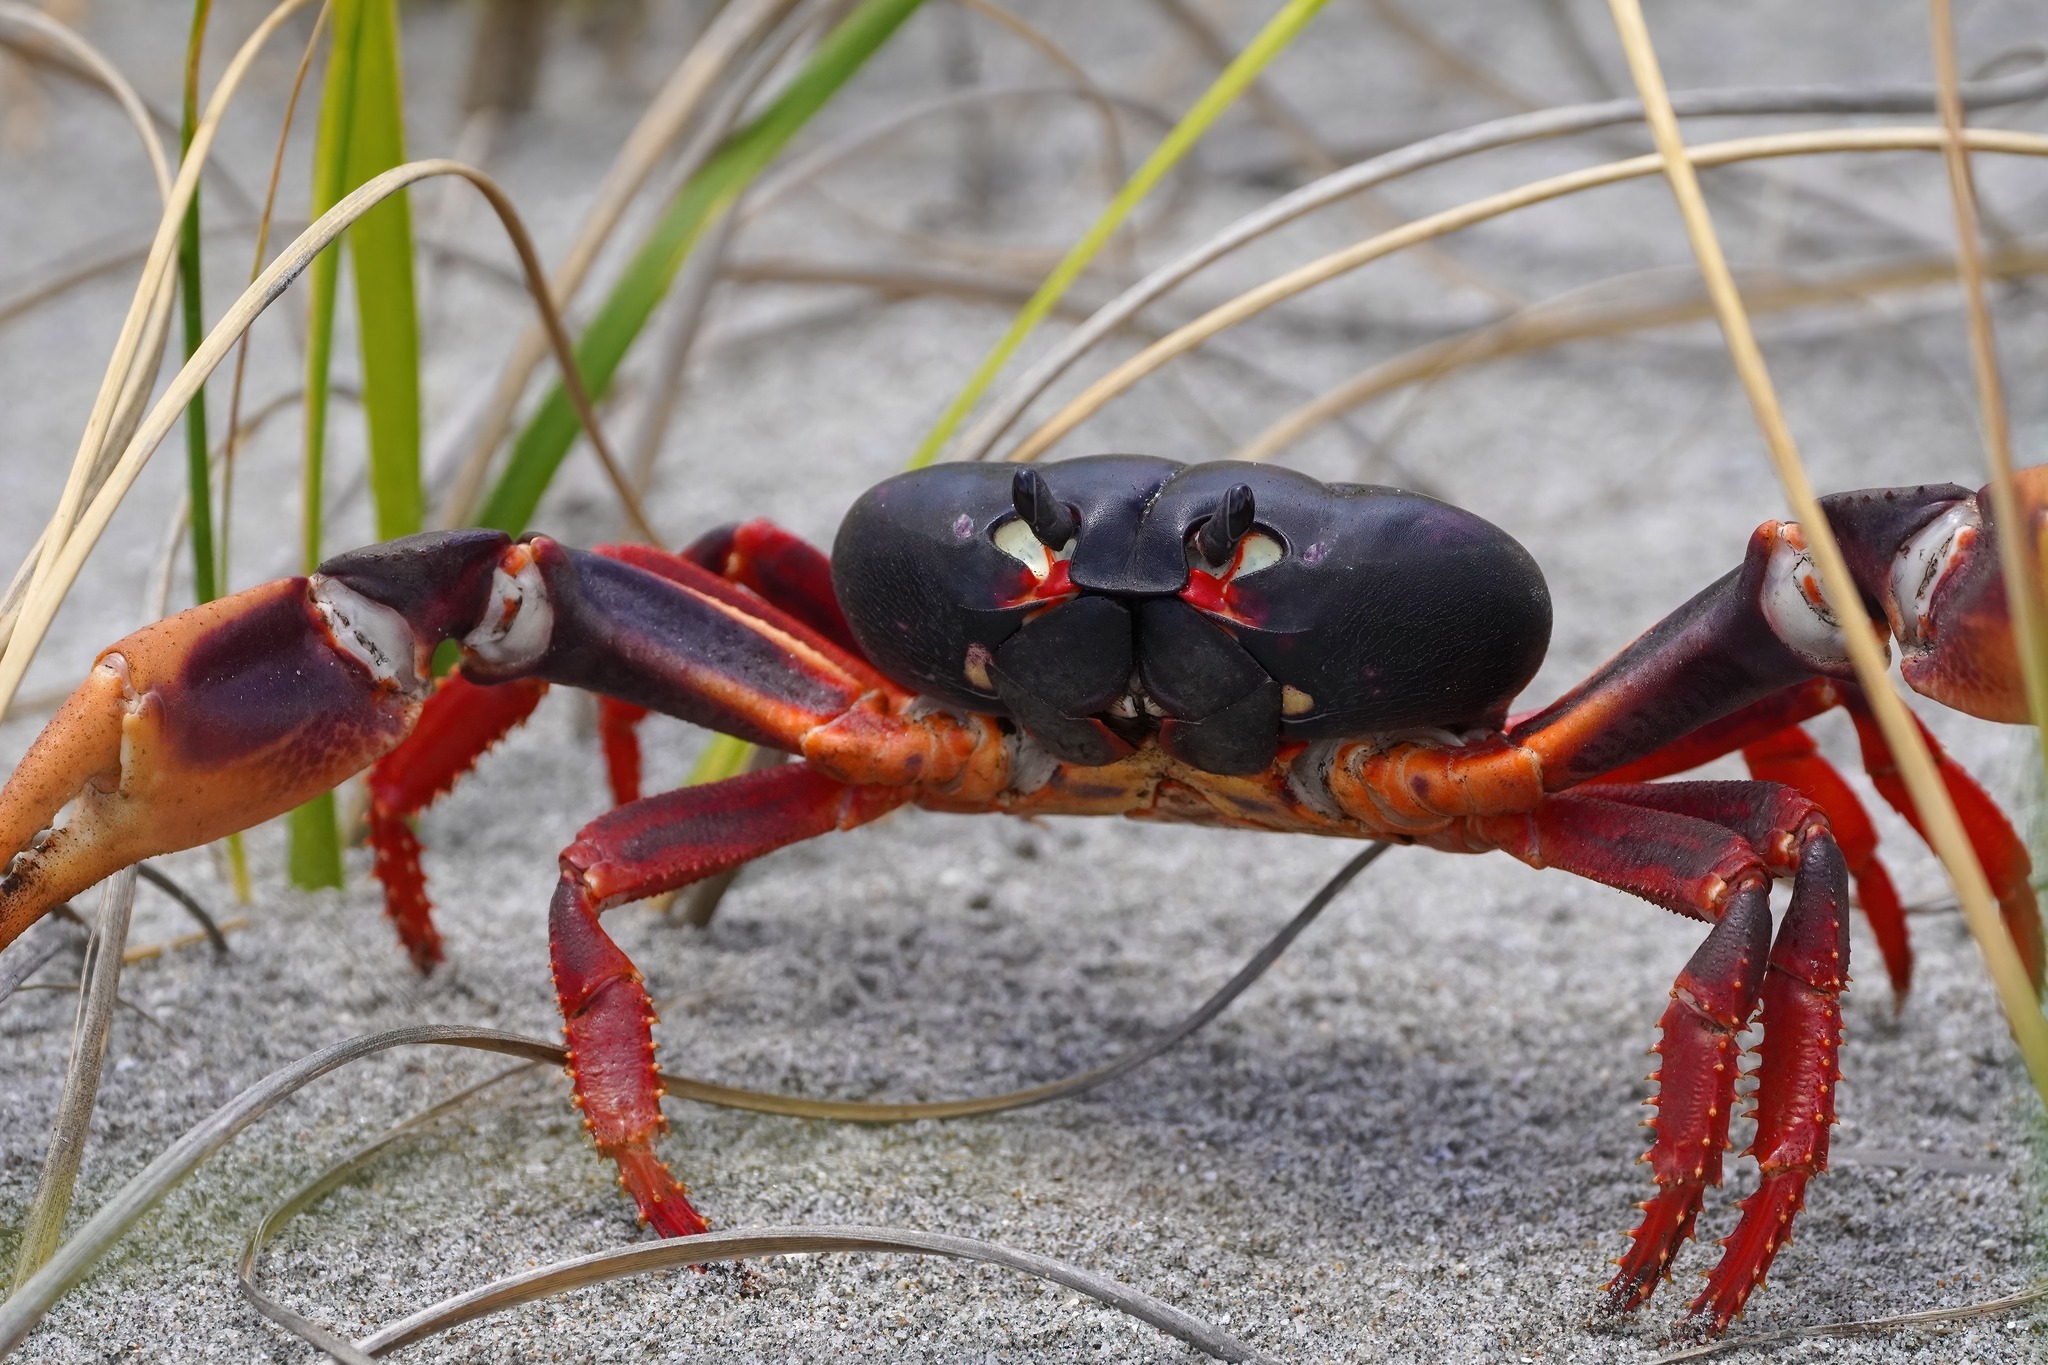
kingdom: Animalia
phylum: Arthropoda
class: Malacostraca
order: Decapoda
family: Gecarcinidae
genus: Gecarcinus
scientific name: Gecarcinus ruricola
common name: Black land crab
